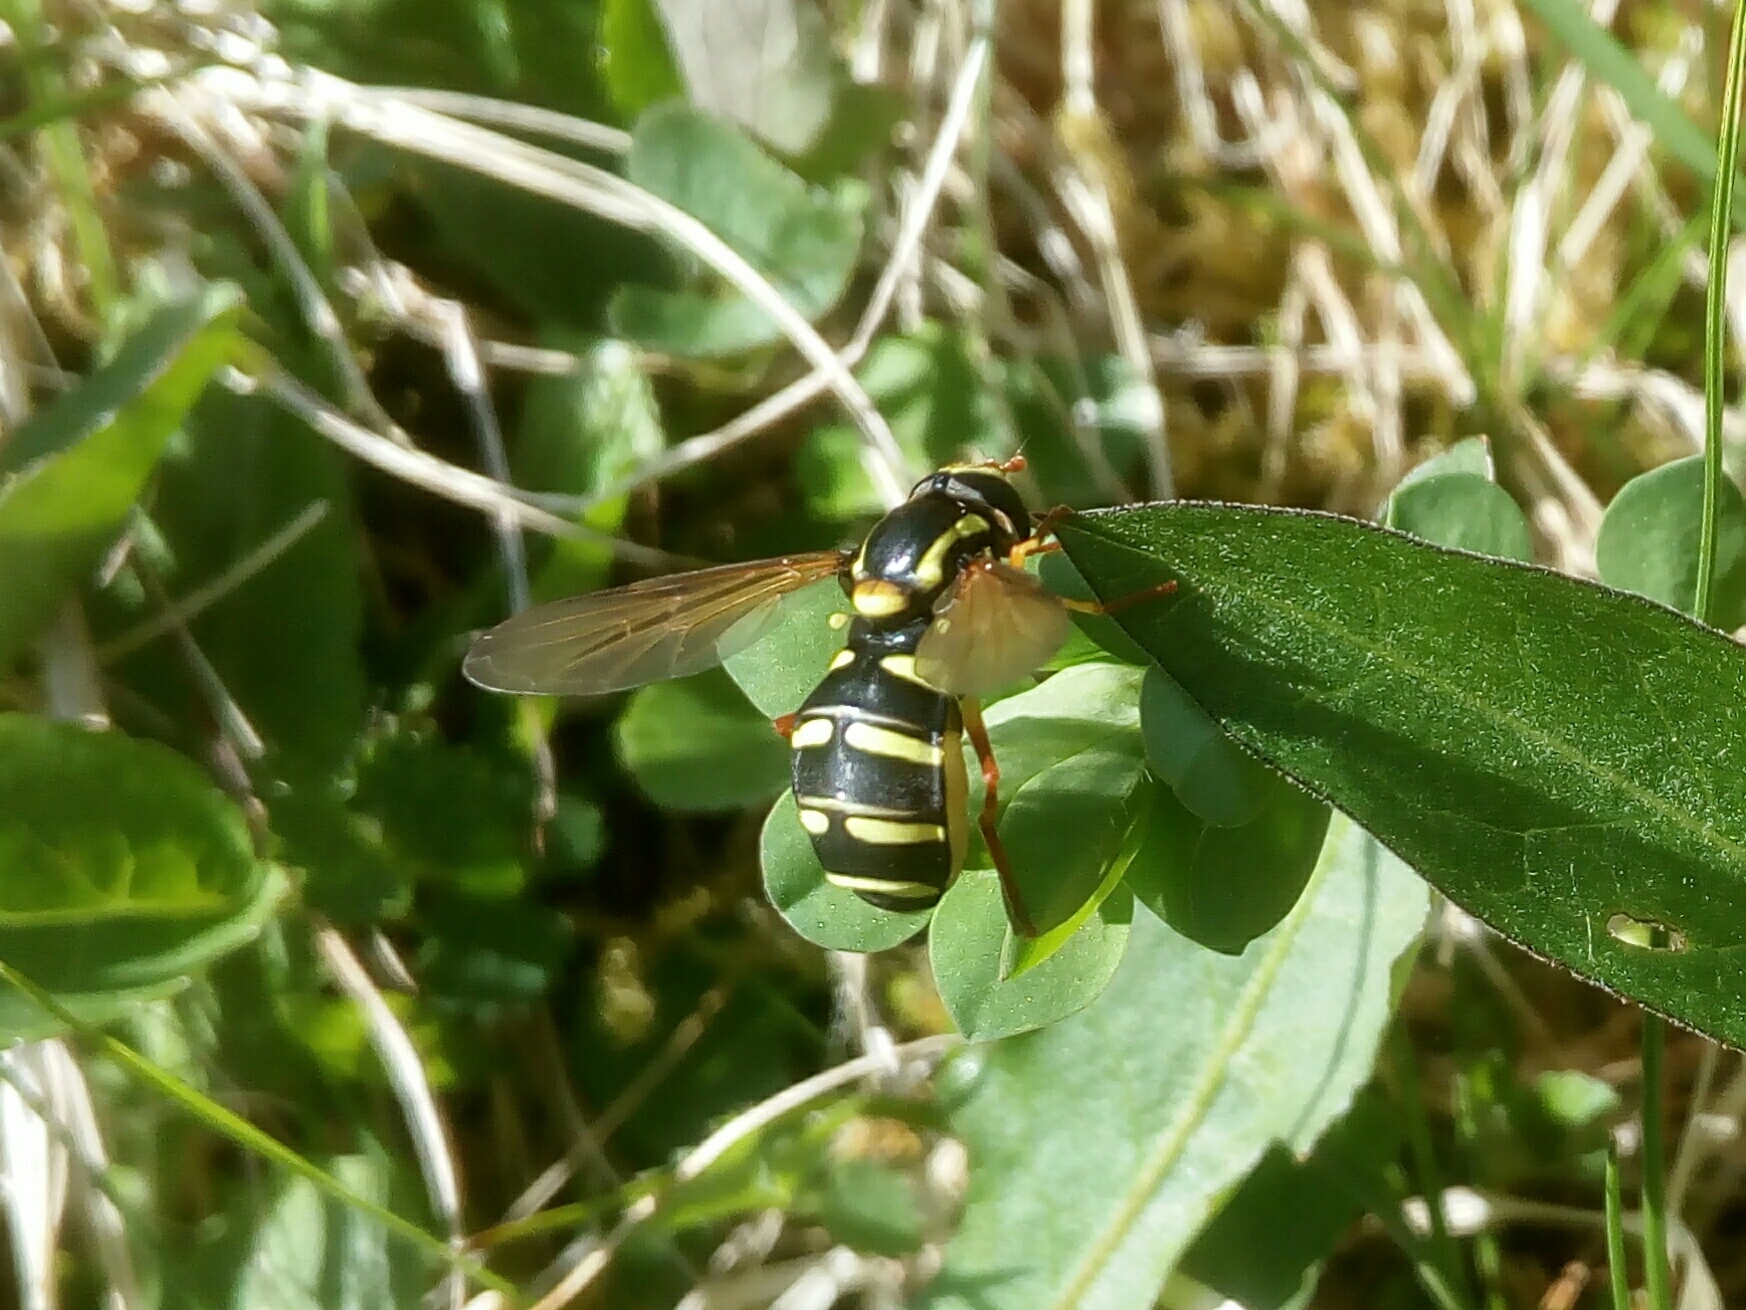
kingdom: Animalia
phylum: Arthropoda
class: Insecta
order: Diptera
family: Syrphidae
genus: Philhelius
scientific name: Philhelius citrofasciata
